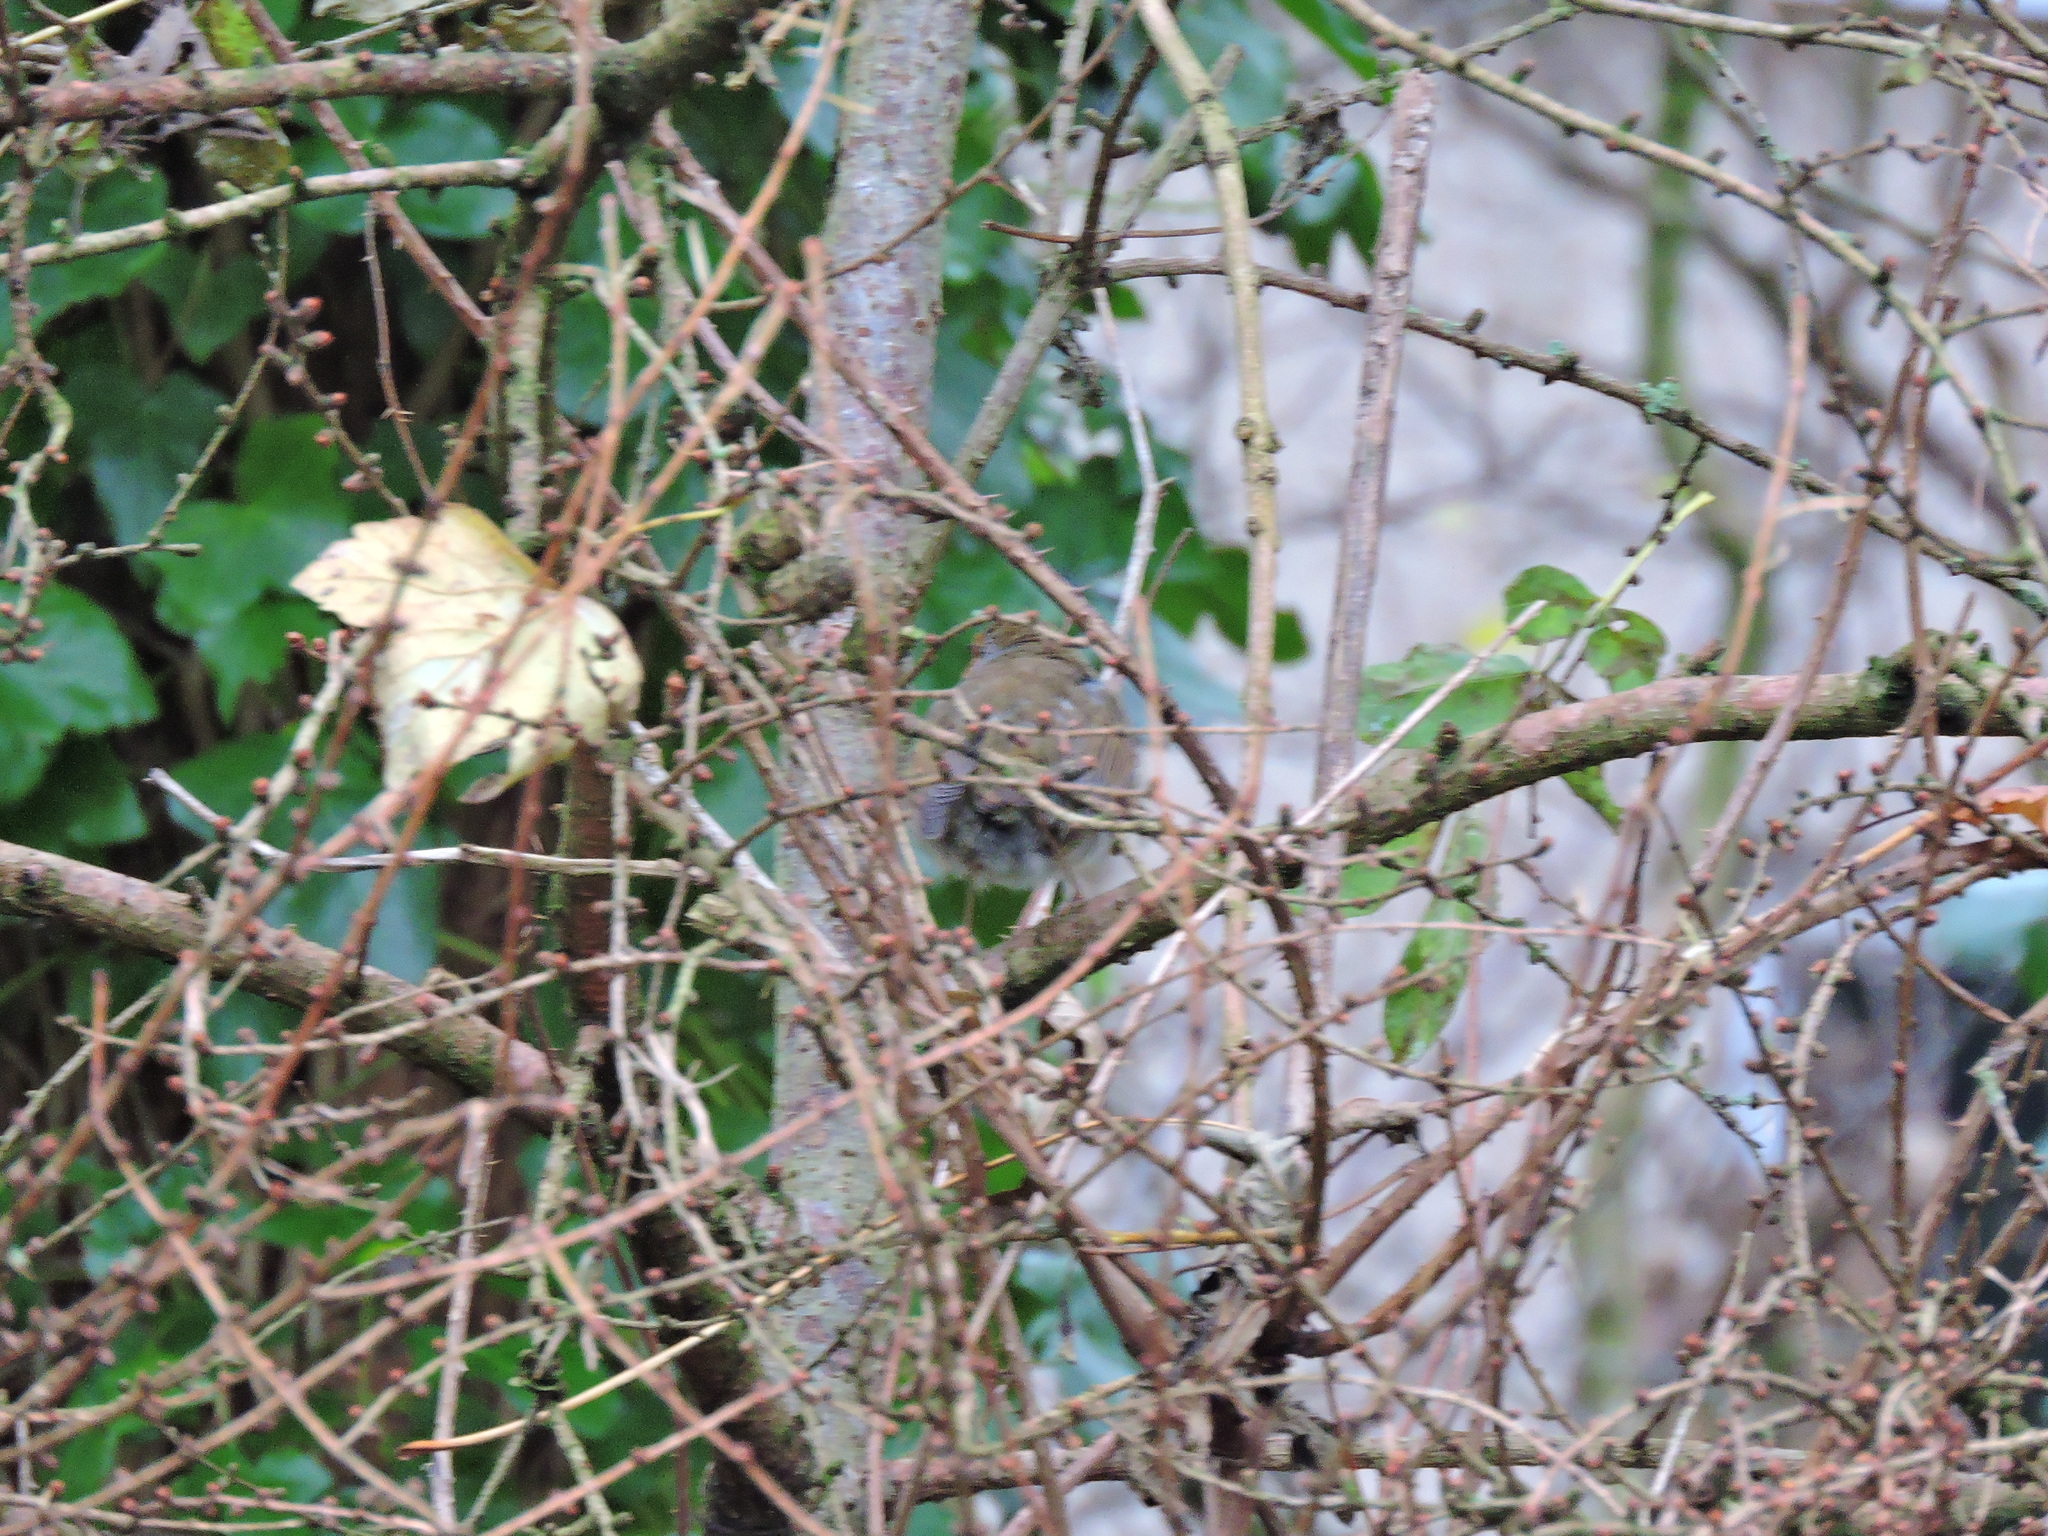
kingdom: Animalia
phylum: Chordata
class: Aves
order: Passeriformes
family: Muscicapidae
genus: Erithacus
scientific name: Erithacus rubecula
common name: European robin
